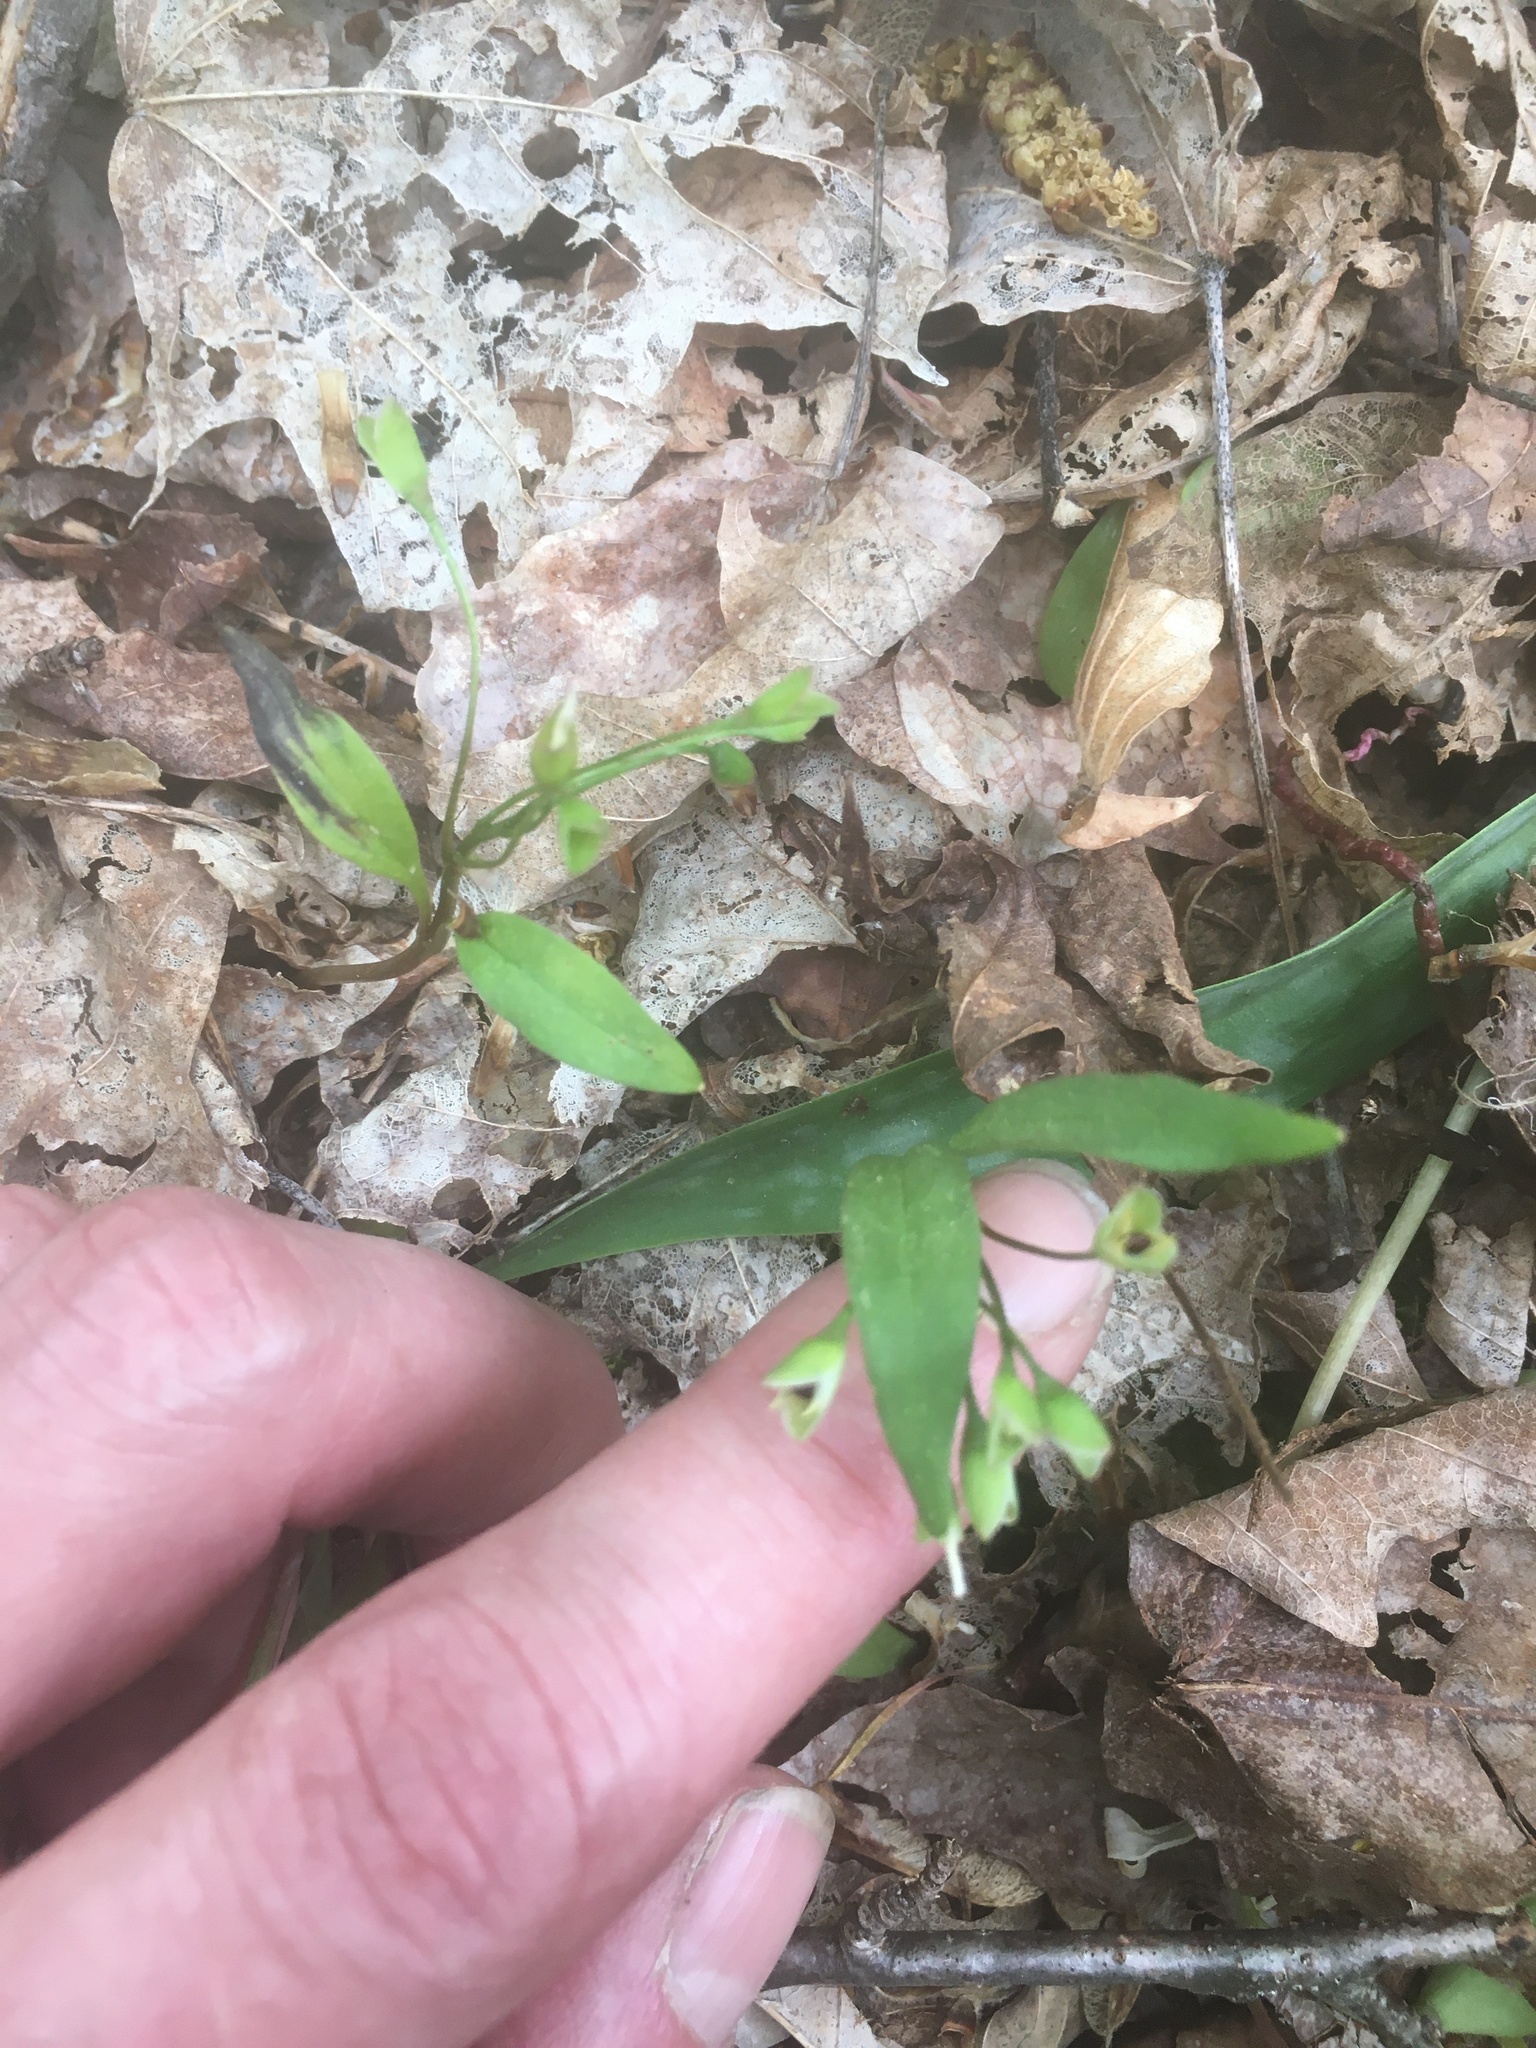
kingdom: Plantae
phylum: Tracheophyta
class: Magnoliopsida
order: Caryophyllales
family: Montiaceae
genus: Claytonia
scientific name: Claytonia caroliniana
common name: Carolina spring beauty
